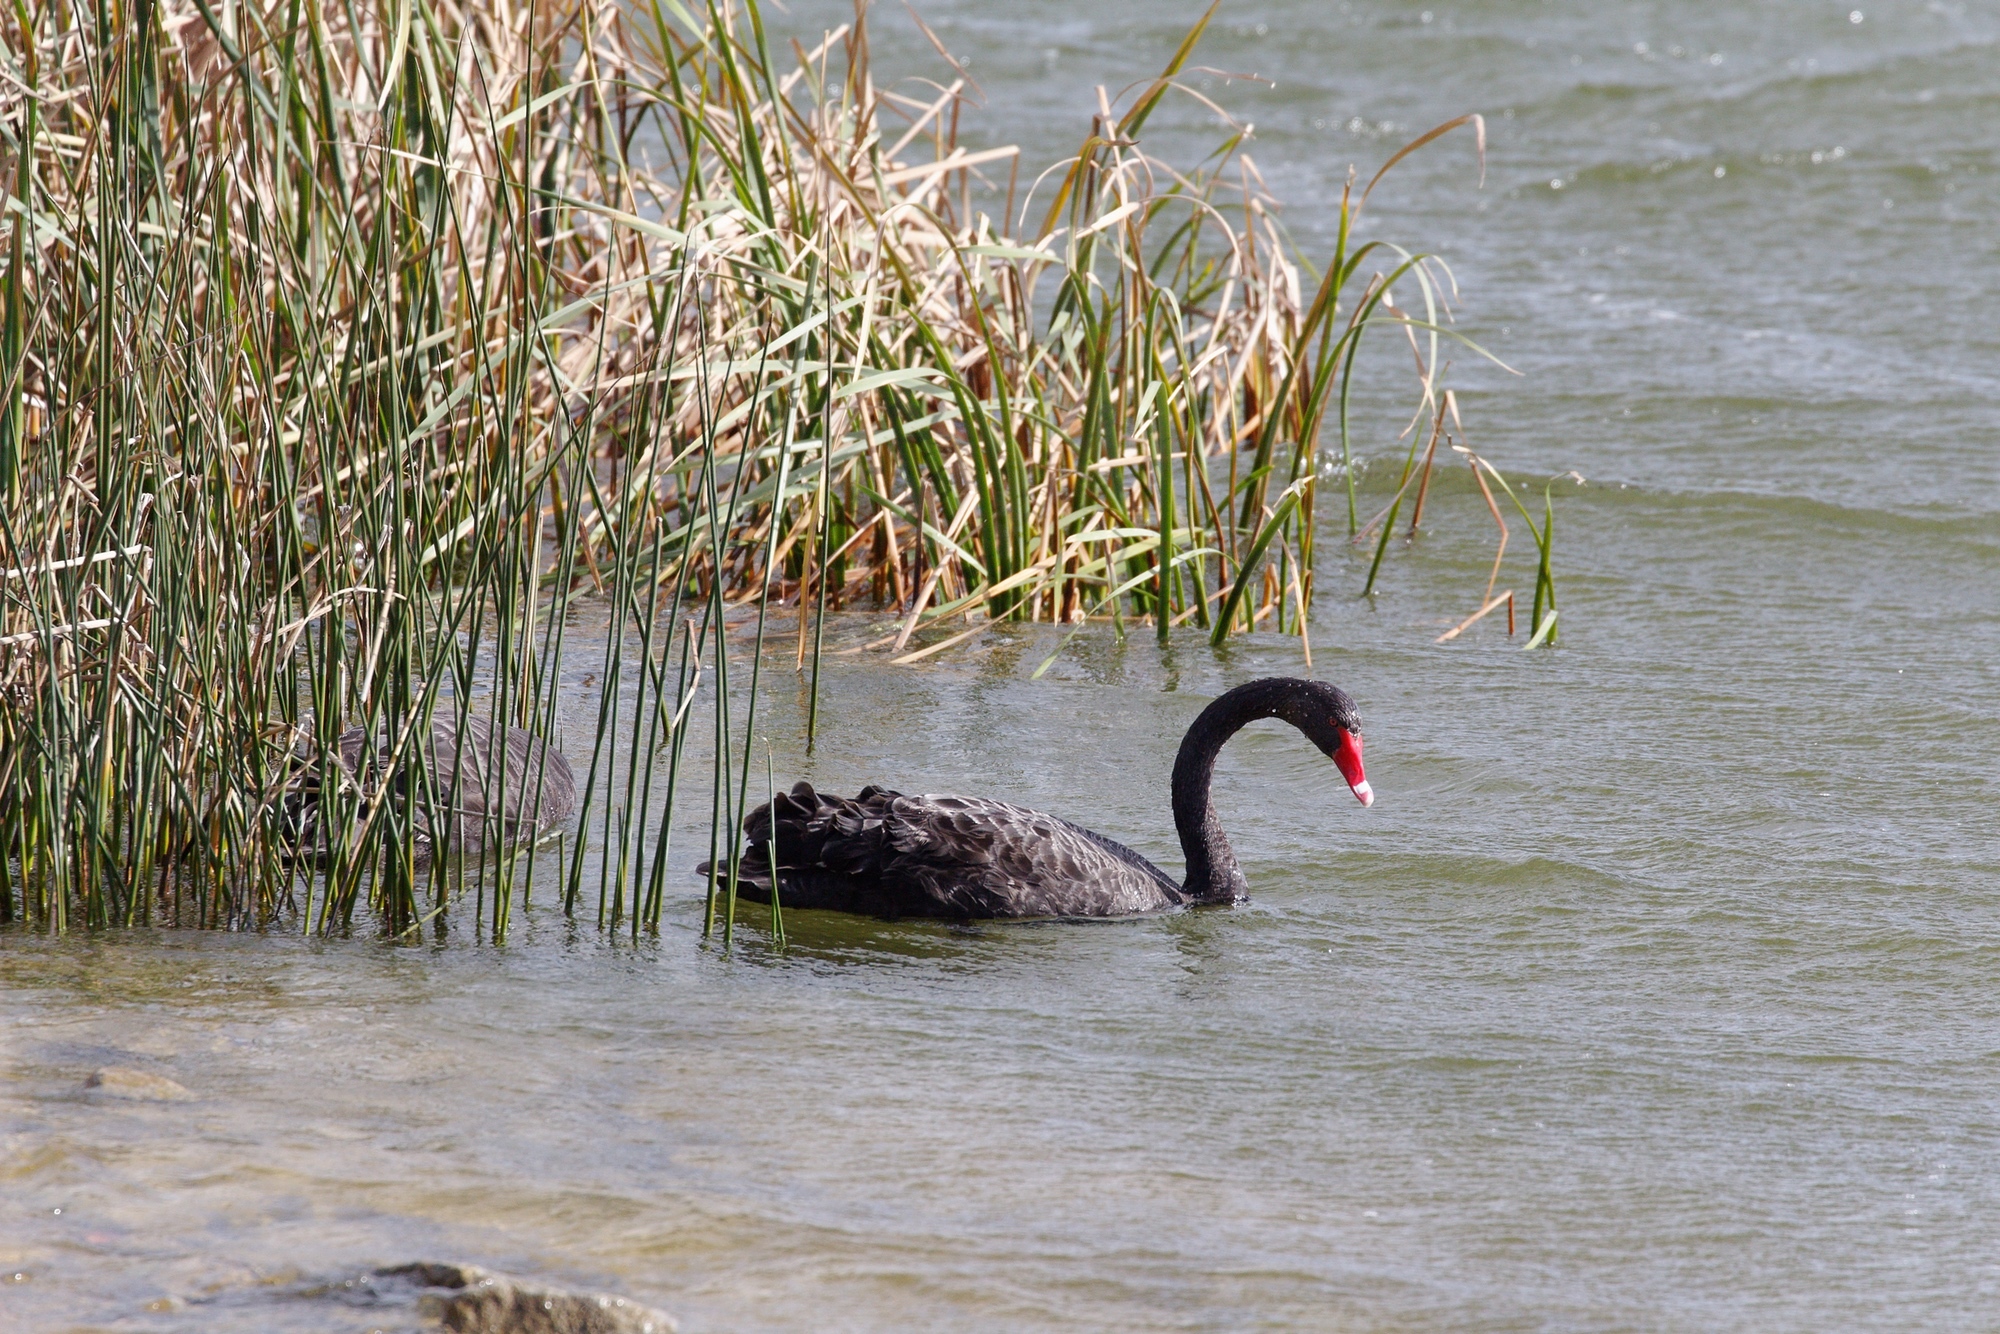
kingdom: Animalia
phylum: Chordata
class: Aves
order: Anseriformes
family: Anatidae
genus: Cygnus
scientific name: Cygnus atratus
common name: Black swan
